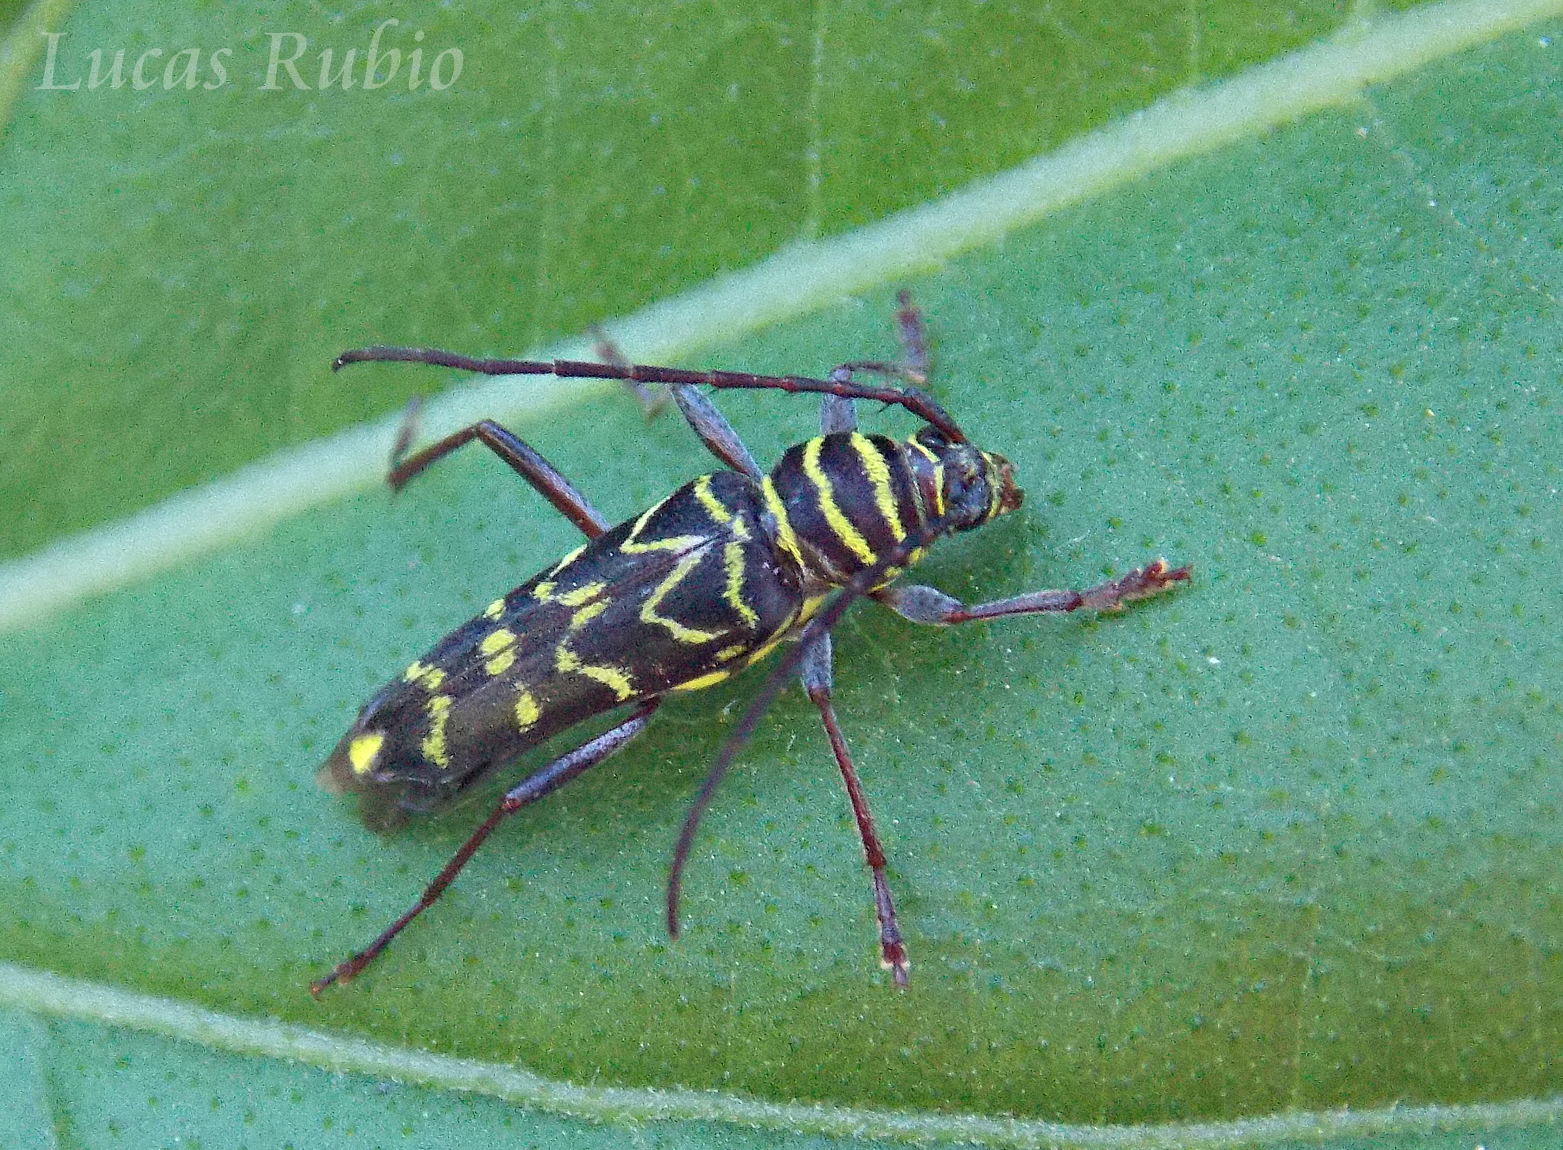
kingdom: Animalia
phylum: Arthropoda
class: Insecta
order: Coleoptera
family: Cerambycidae
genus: Megacyllene
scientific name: Megacyllene acuta
